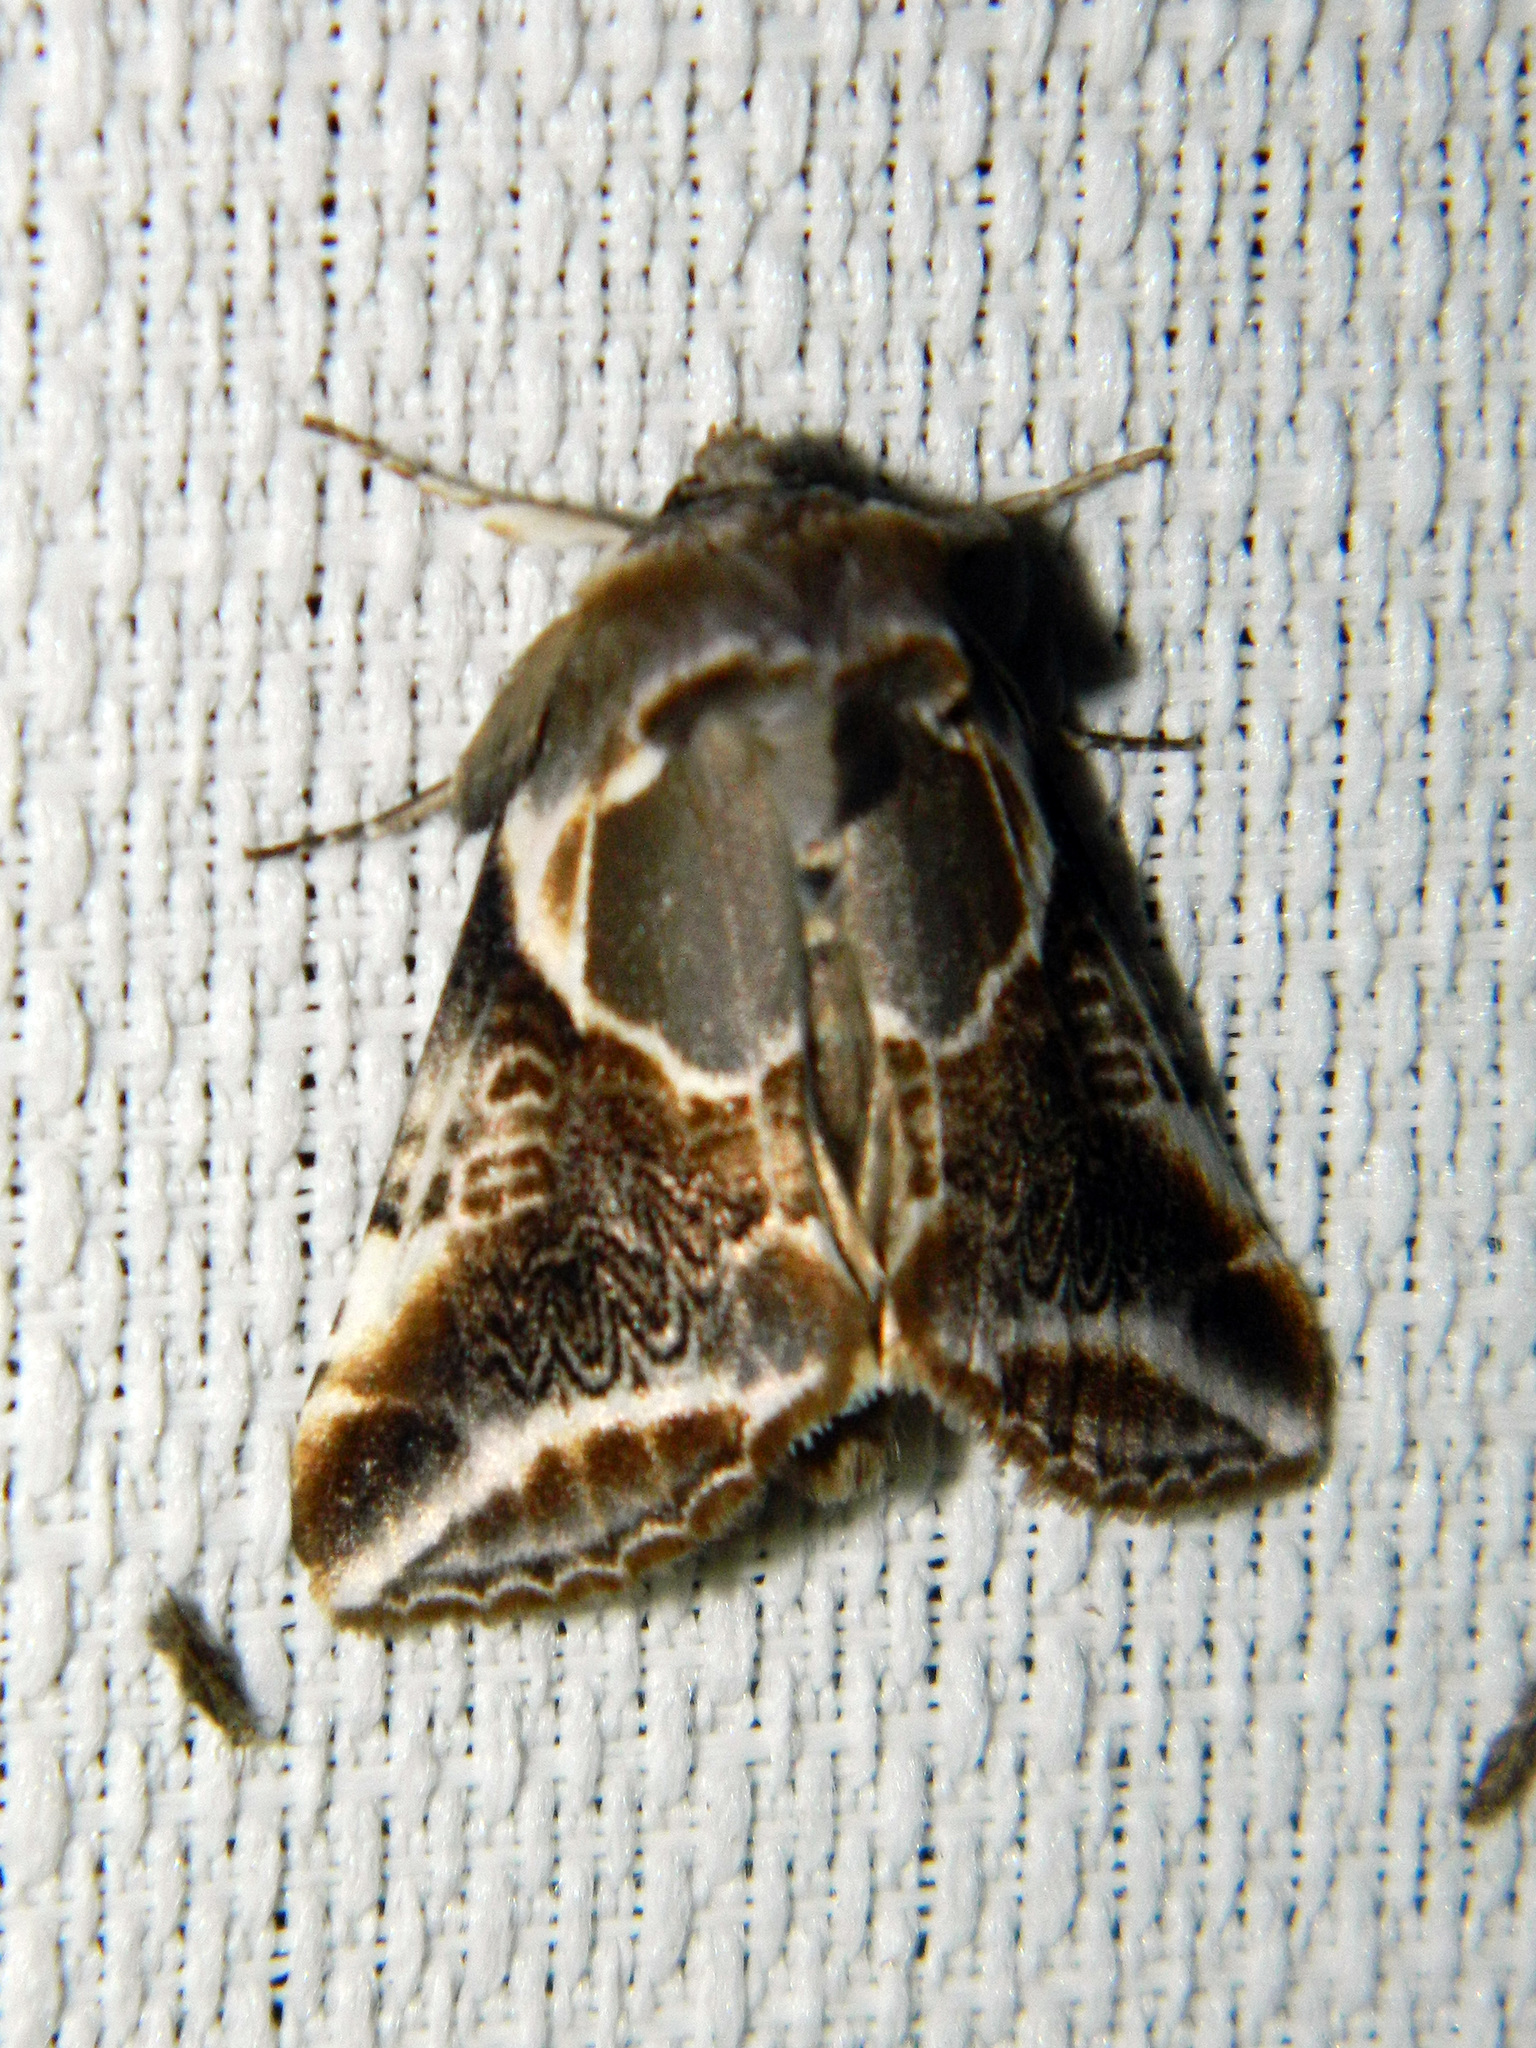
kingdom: Animalia
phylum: Arthropoda
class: Insecta
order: Lepidoptera
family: Drepanidae
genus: Habrosyne
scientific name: Habrosyne scripta
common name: Lettered habrosyne moth
